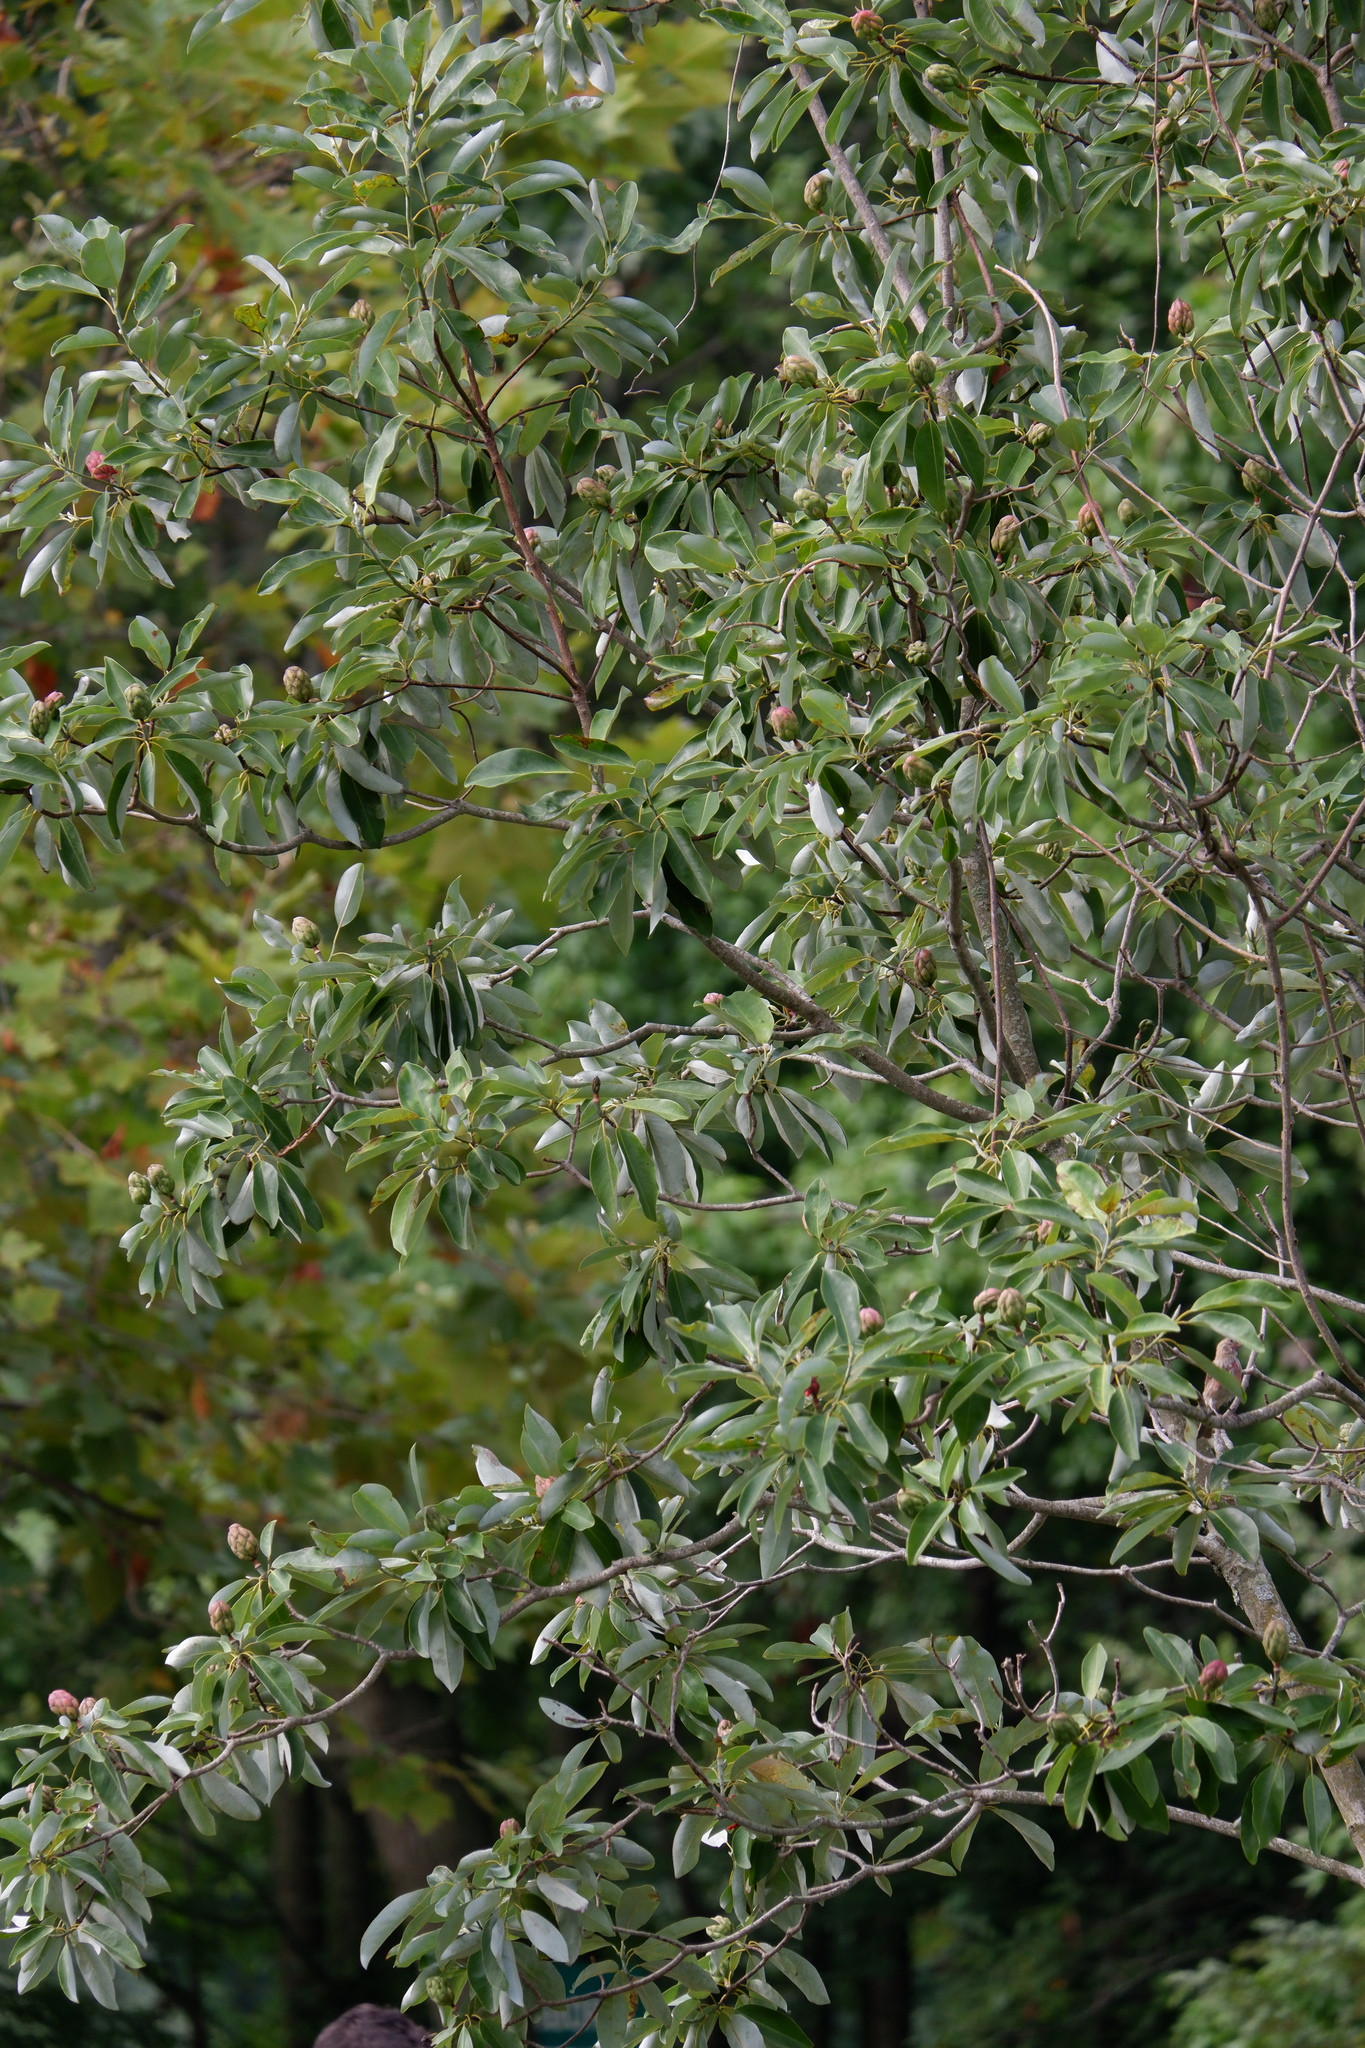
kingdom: Animalia
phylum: Chordata
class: Aves
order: Passeriformes
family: Fringillidae
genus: Haemorhous
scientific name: Haemorhous mexicanus
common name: House finch
